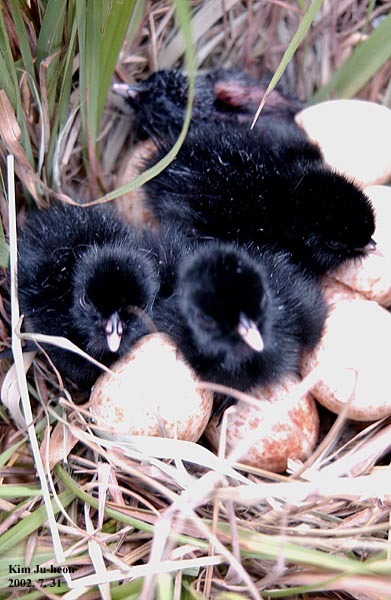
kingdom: Animalia
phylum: Chordata
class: Aves
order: Gruiformes
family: Rallidae
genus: Gallicrex
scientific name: Gallicrex cinerea
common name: Watercock
